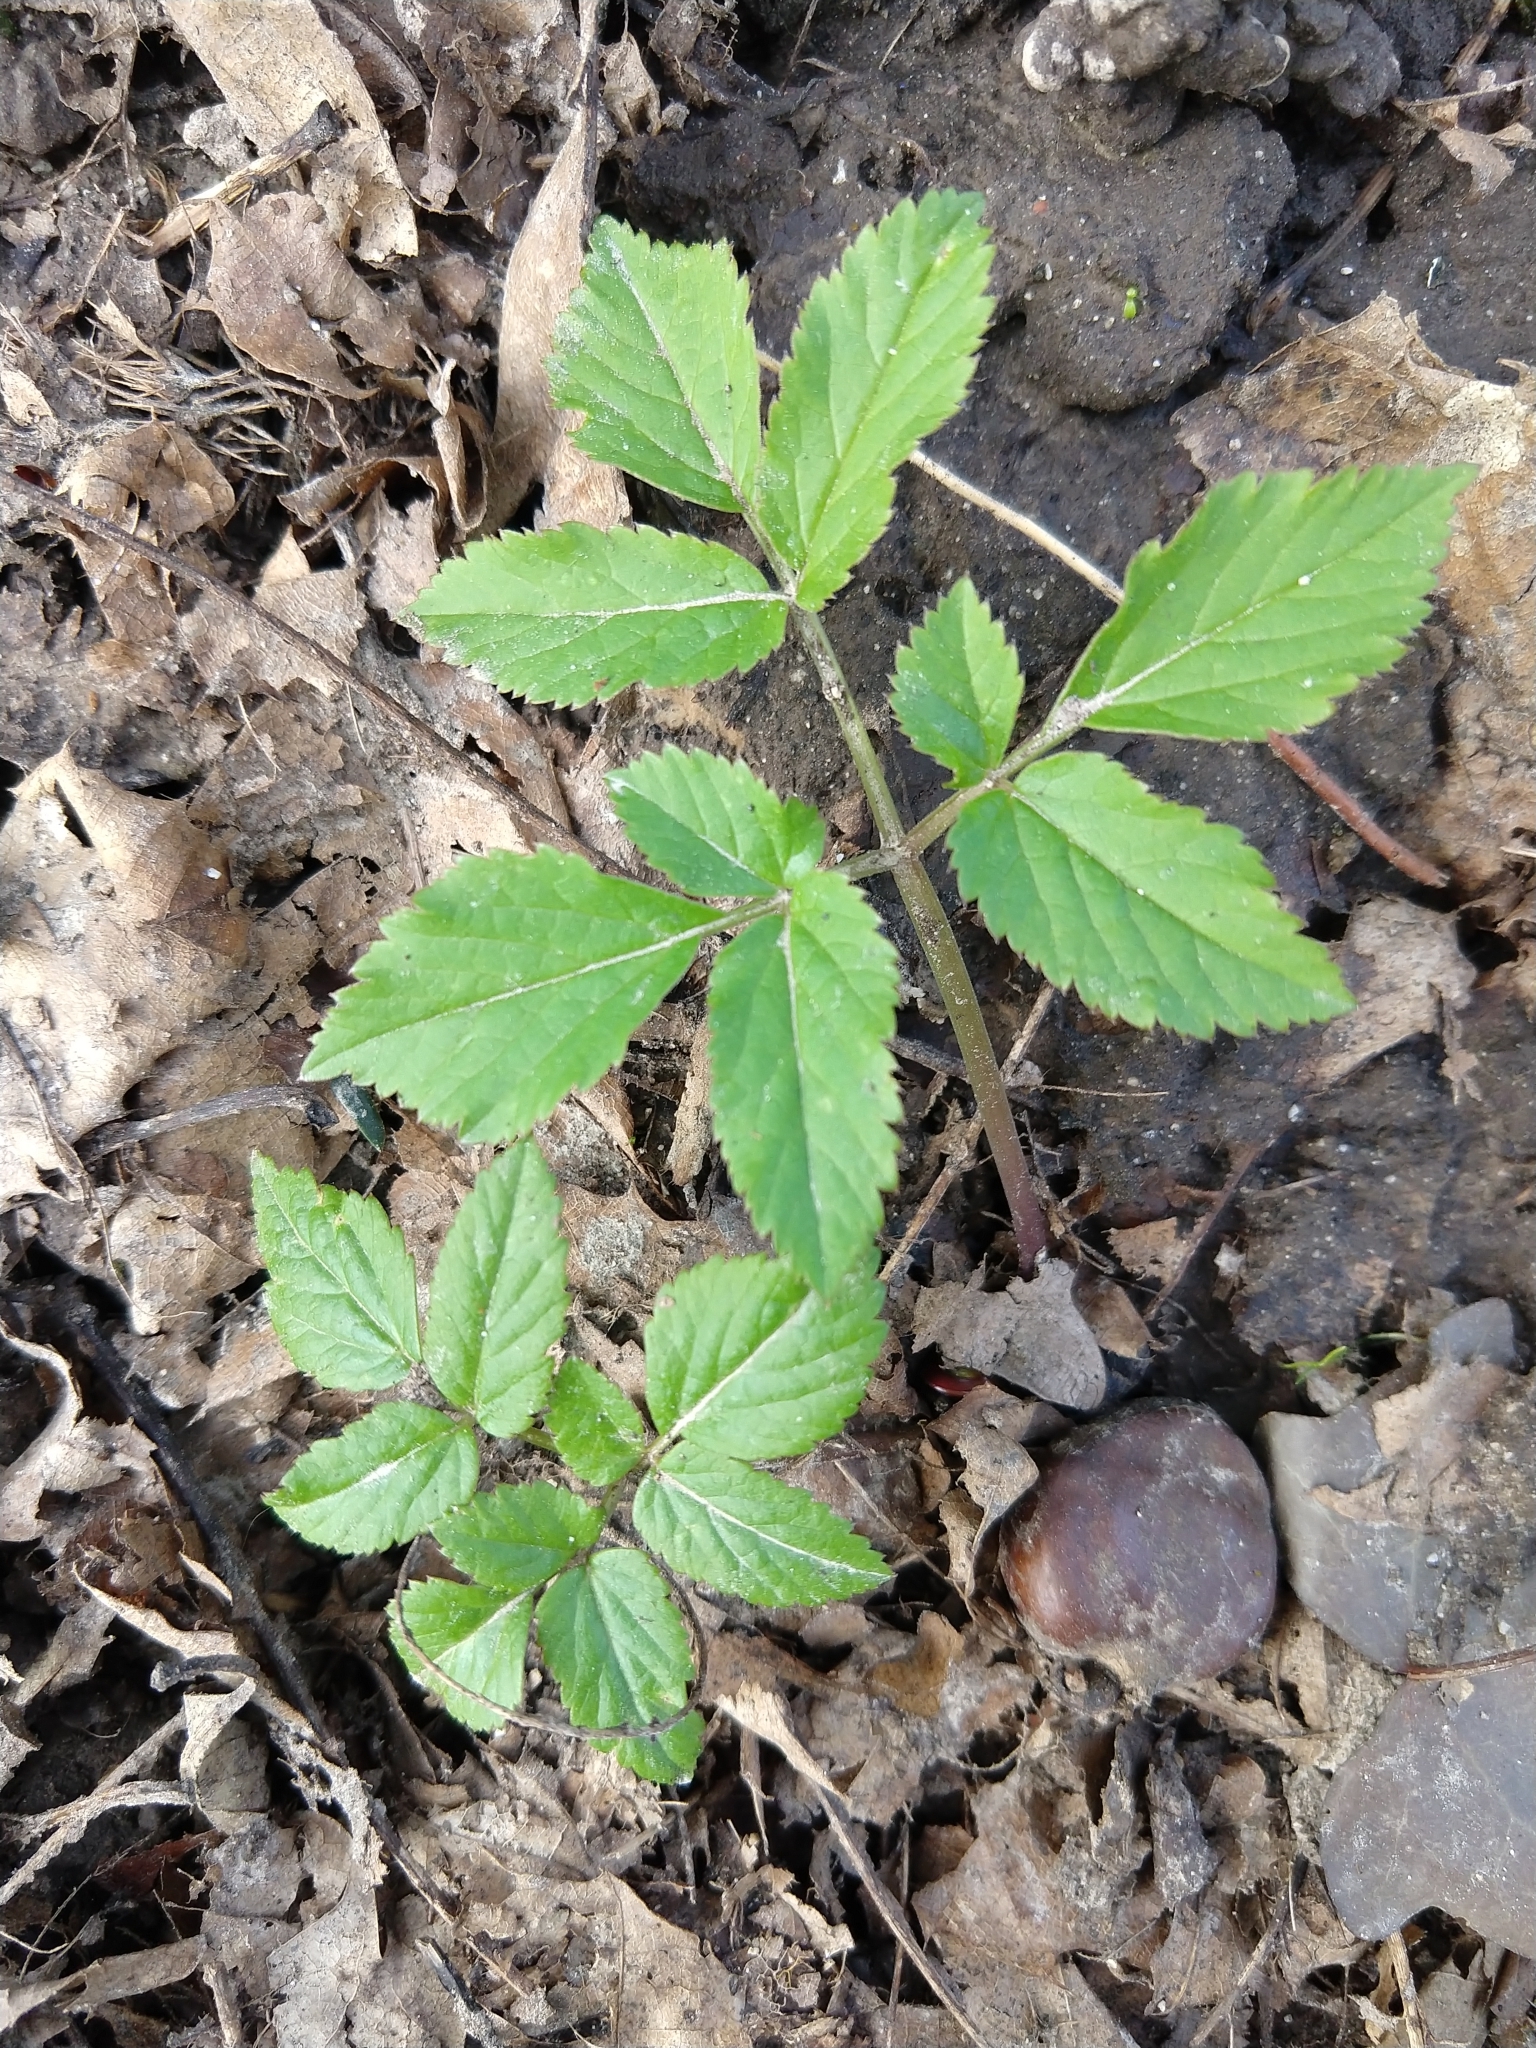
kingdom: Plantae
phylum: Tracheophyta
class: Magnoliopsida
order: Apiales
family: Apiaceae
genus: Aegopodium
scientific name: Aegopodium podagraria
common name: Ground-elder
